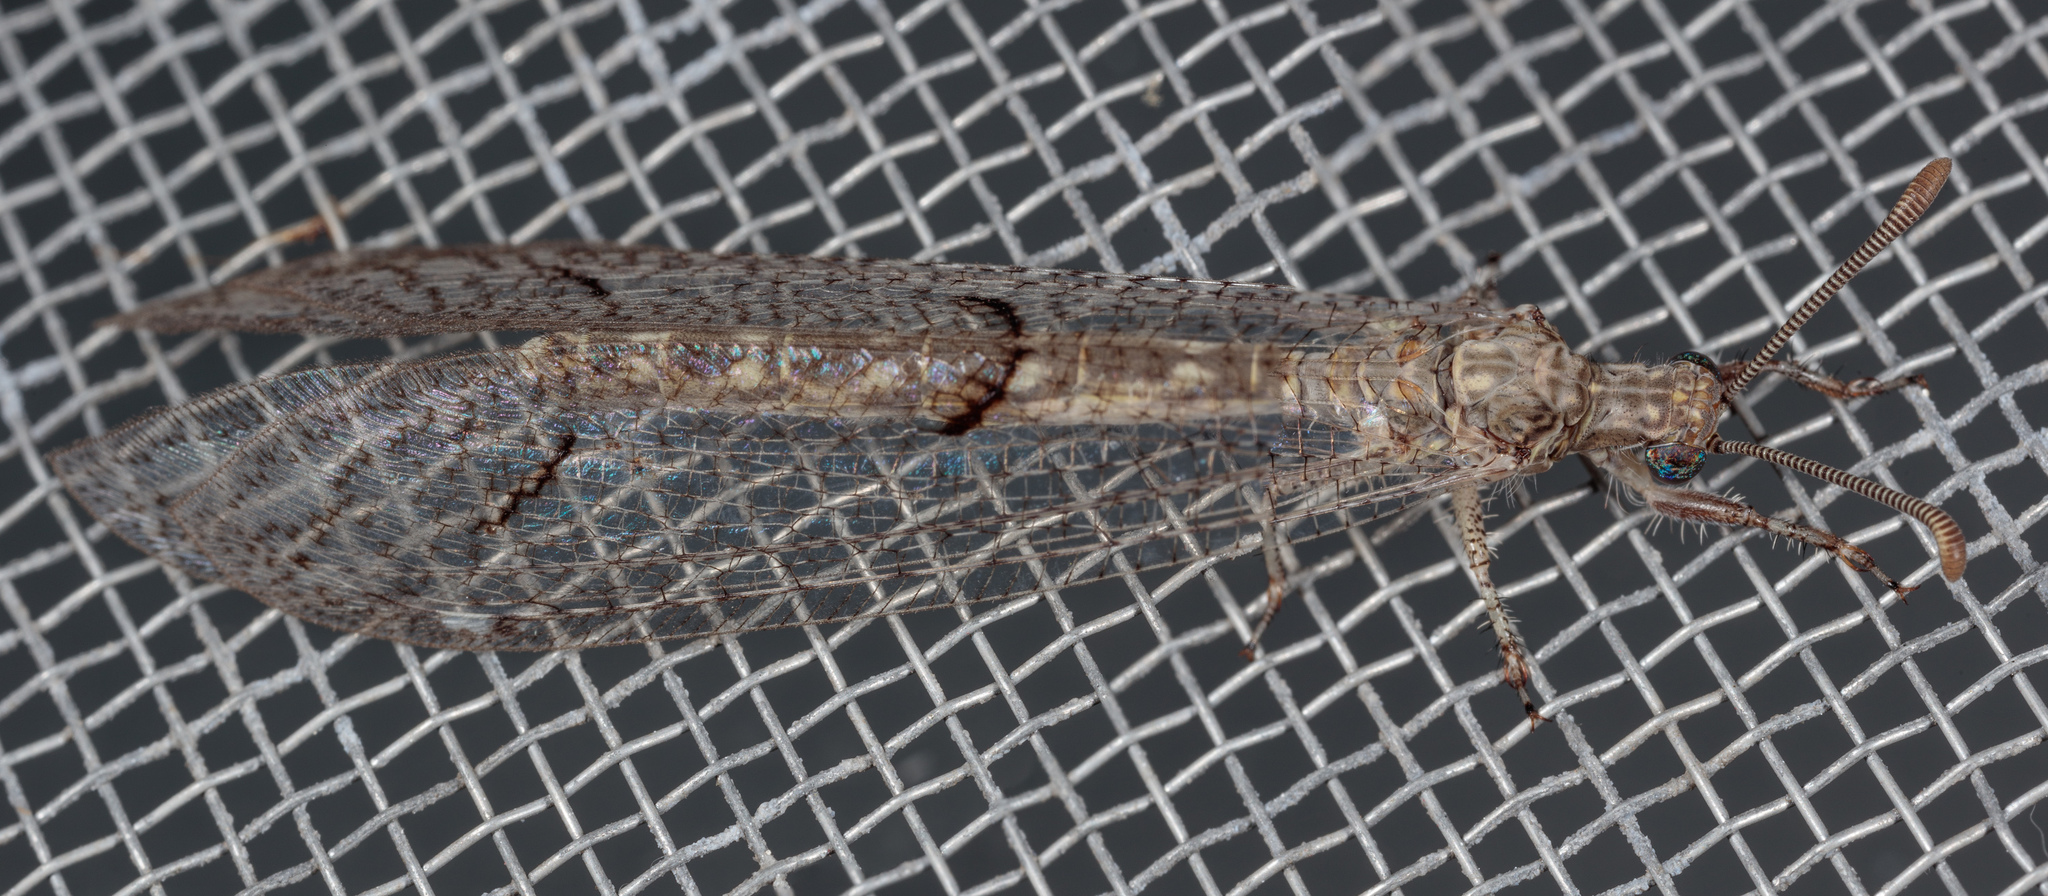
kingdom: Animalia
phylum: Arthropoda
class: Insecta
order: Neuroptera
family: Myrmeleontidae
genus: Euptilon
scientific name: Euptilon ornatum
